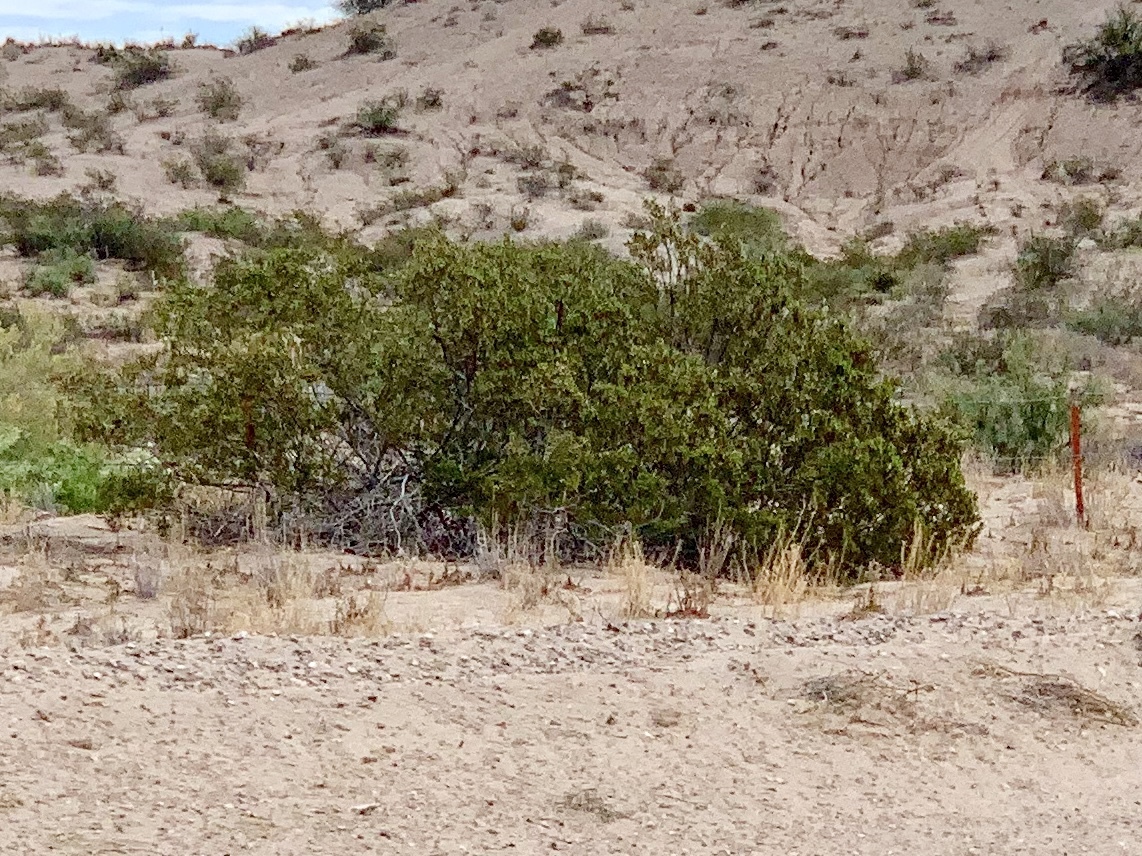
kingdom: Plantae
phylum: Tracheophyta
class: Magnoliopsida
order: Zygophyllales
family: Zygophyllaceae
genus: Larrea
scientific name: Larrea tridentata
